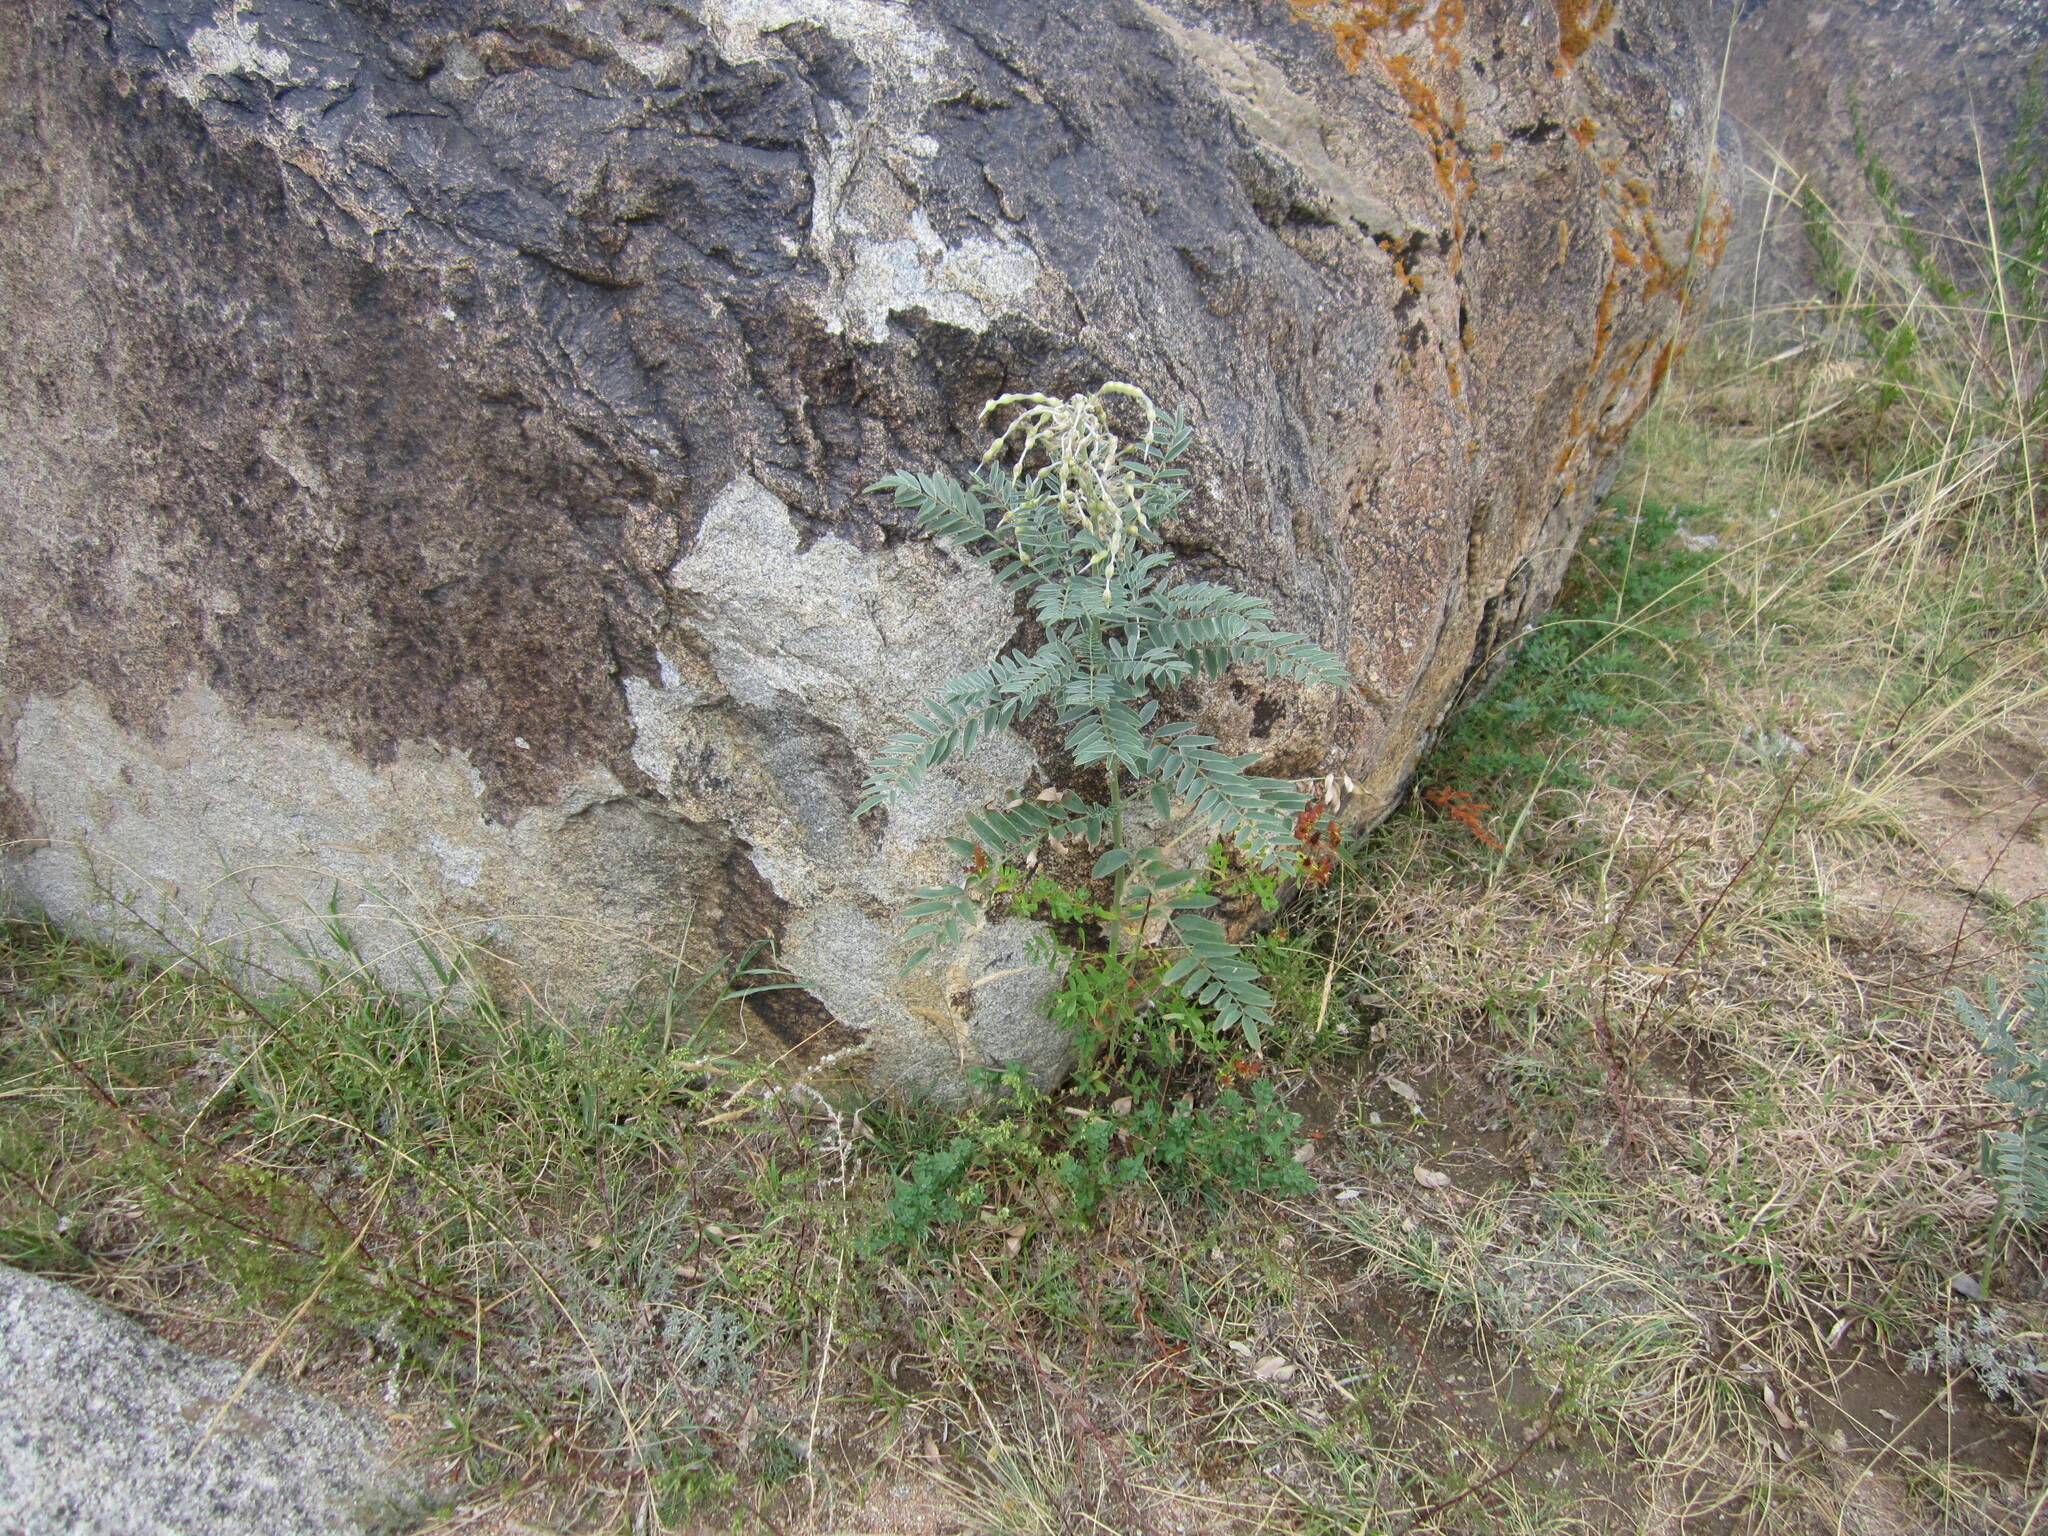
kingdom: Plantae
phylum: Tracheophyta
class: Magnoliopsida
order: Fabales
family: Fabaceae
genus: Sophora
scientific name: Sophora alopecuroides
